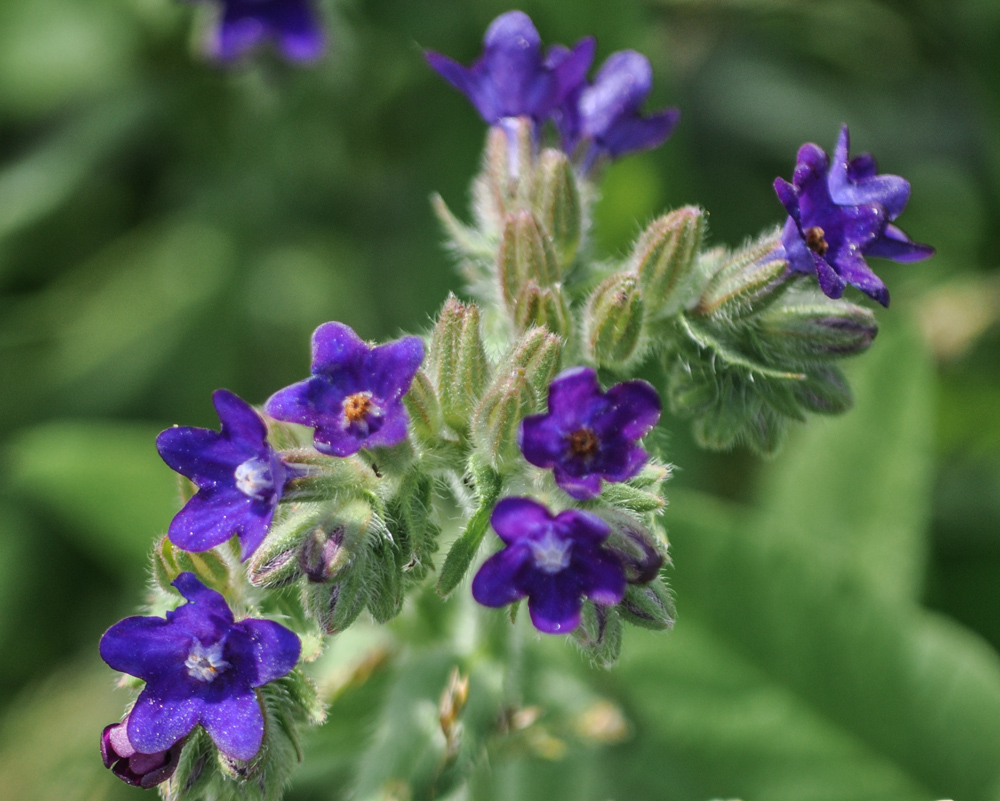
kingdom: Plantae
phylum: Tracheophyta
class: Magnoliopsida
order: Boraginales
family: Boraginaceae
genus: Anchusa
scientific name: Anchusa officinalis
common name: Alkanet
